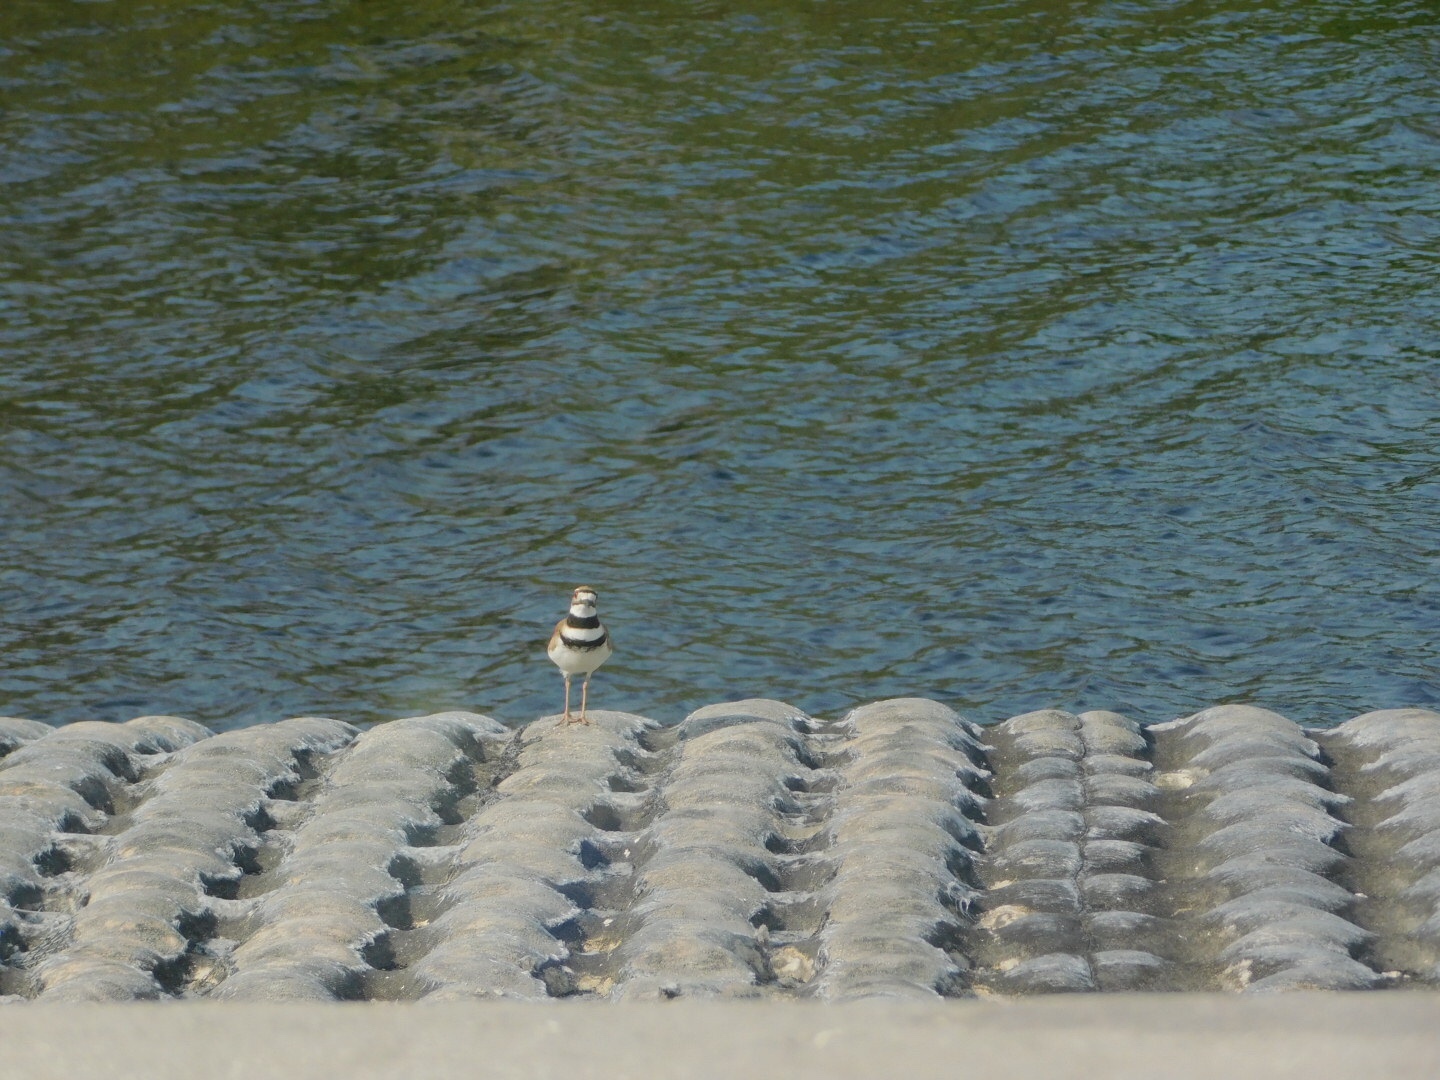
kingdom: Animalia
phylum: Chordata
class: Aves
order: Charadriiformes
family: Charadriidae
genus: Charadrius
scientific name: Charadrius vociferus
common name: Killdeer
